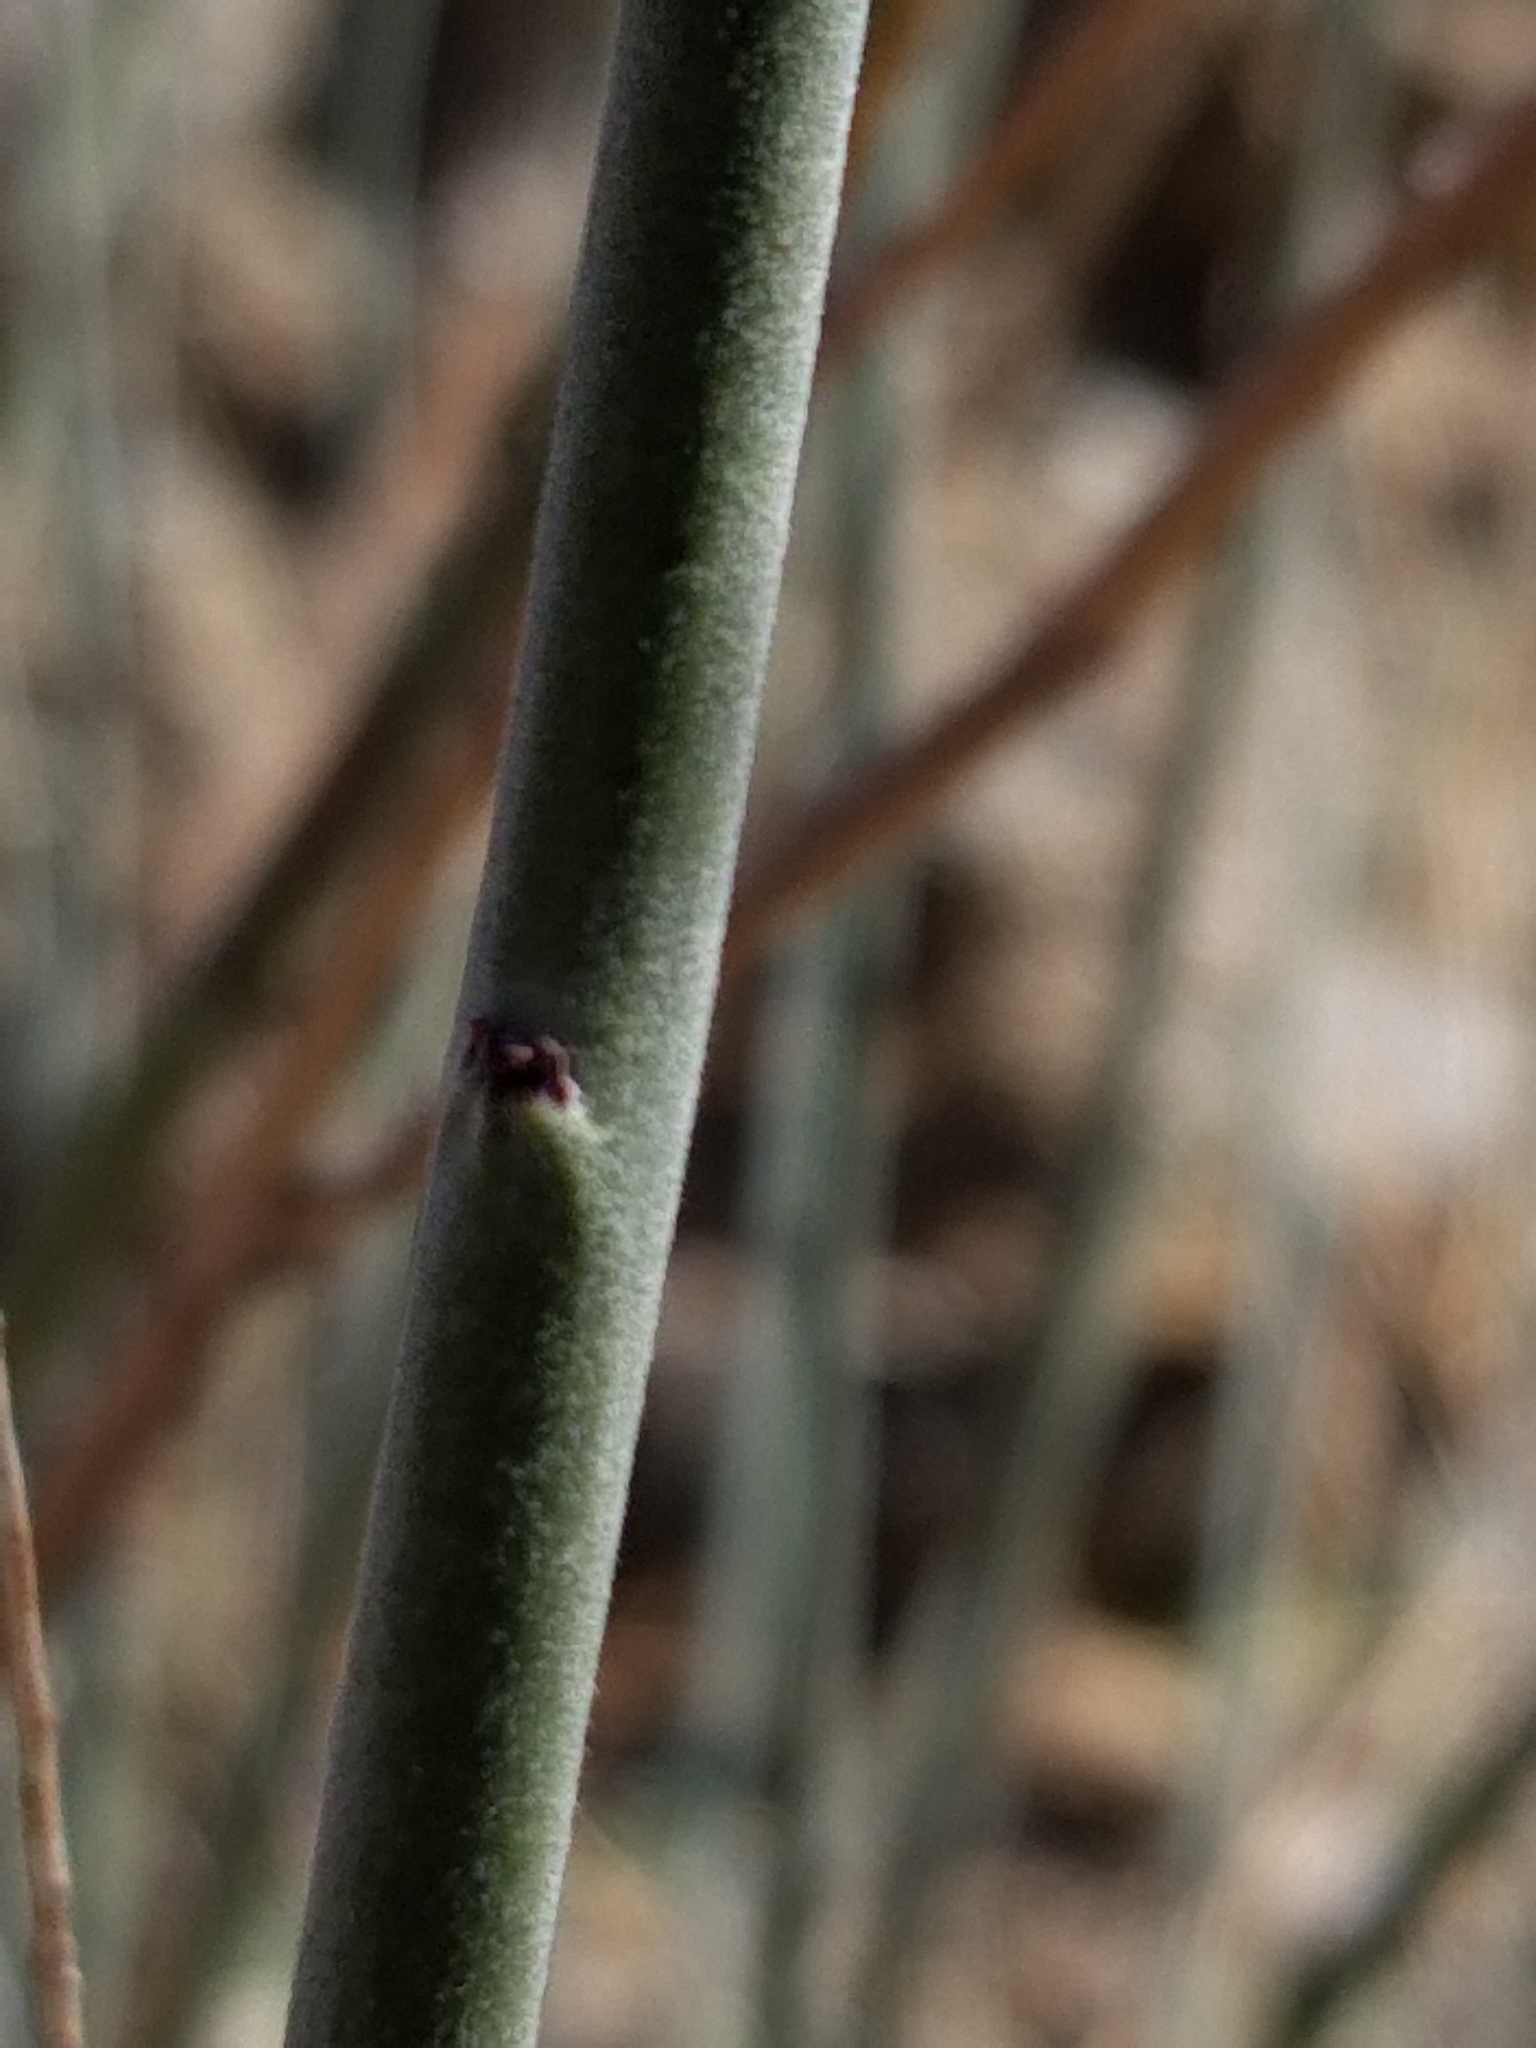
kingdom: Plantae
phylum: Tracheophyta
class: Magnoliopsida
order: Fabales
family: Fabaceae
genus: Hoffmannseggia
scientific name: Hoffmannseggia microphylla
